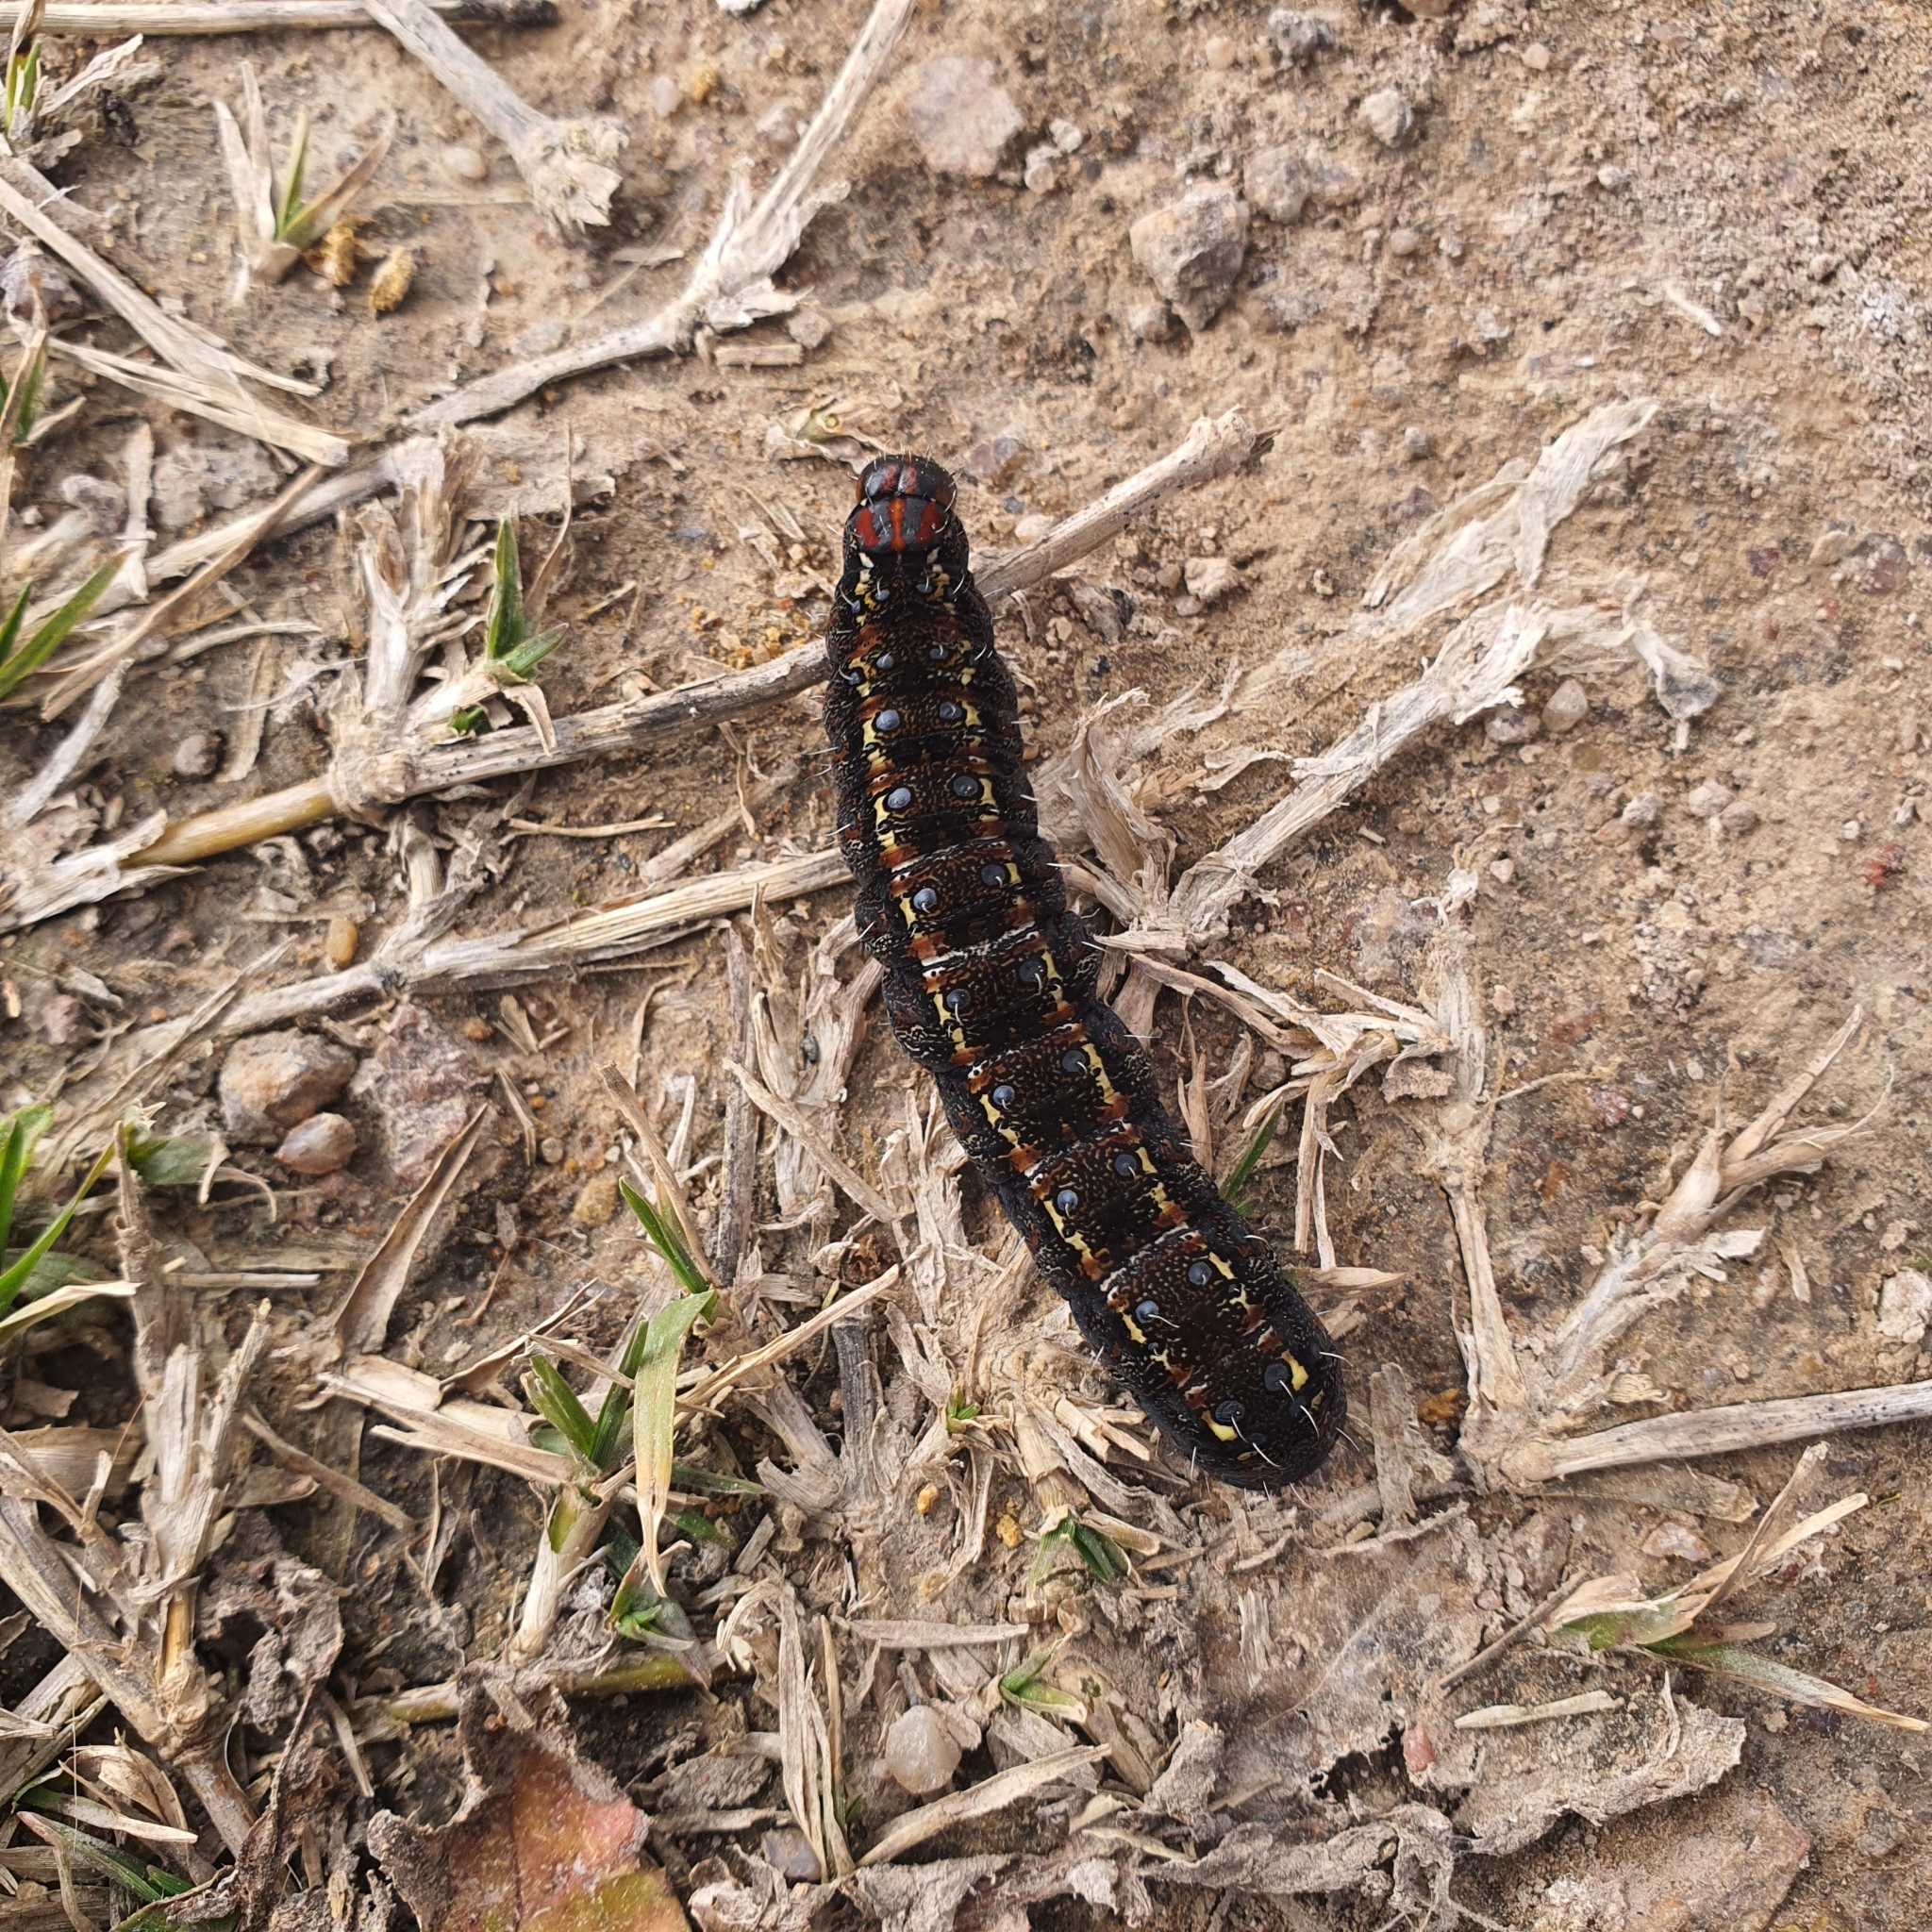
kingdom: Animalia
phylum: Arthropoda
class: Insecta
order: Lepidoptera
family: Noctuidae
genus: Apina
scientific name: Apina callisto
